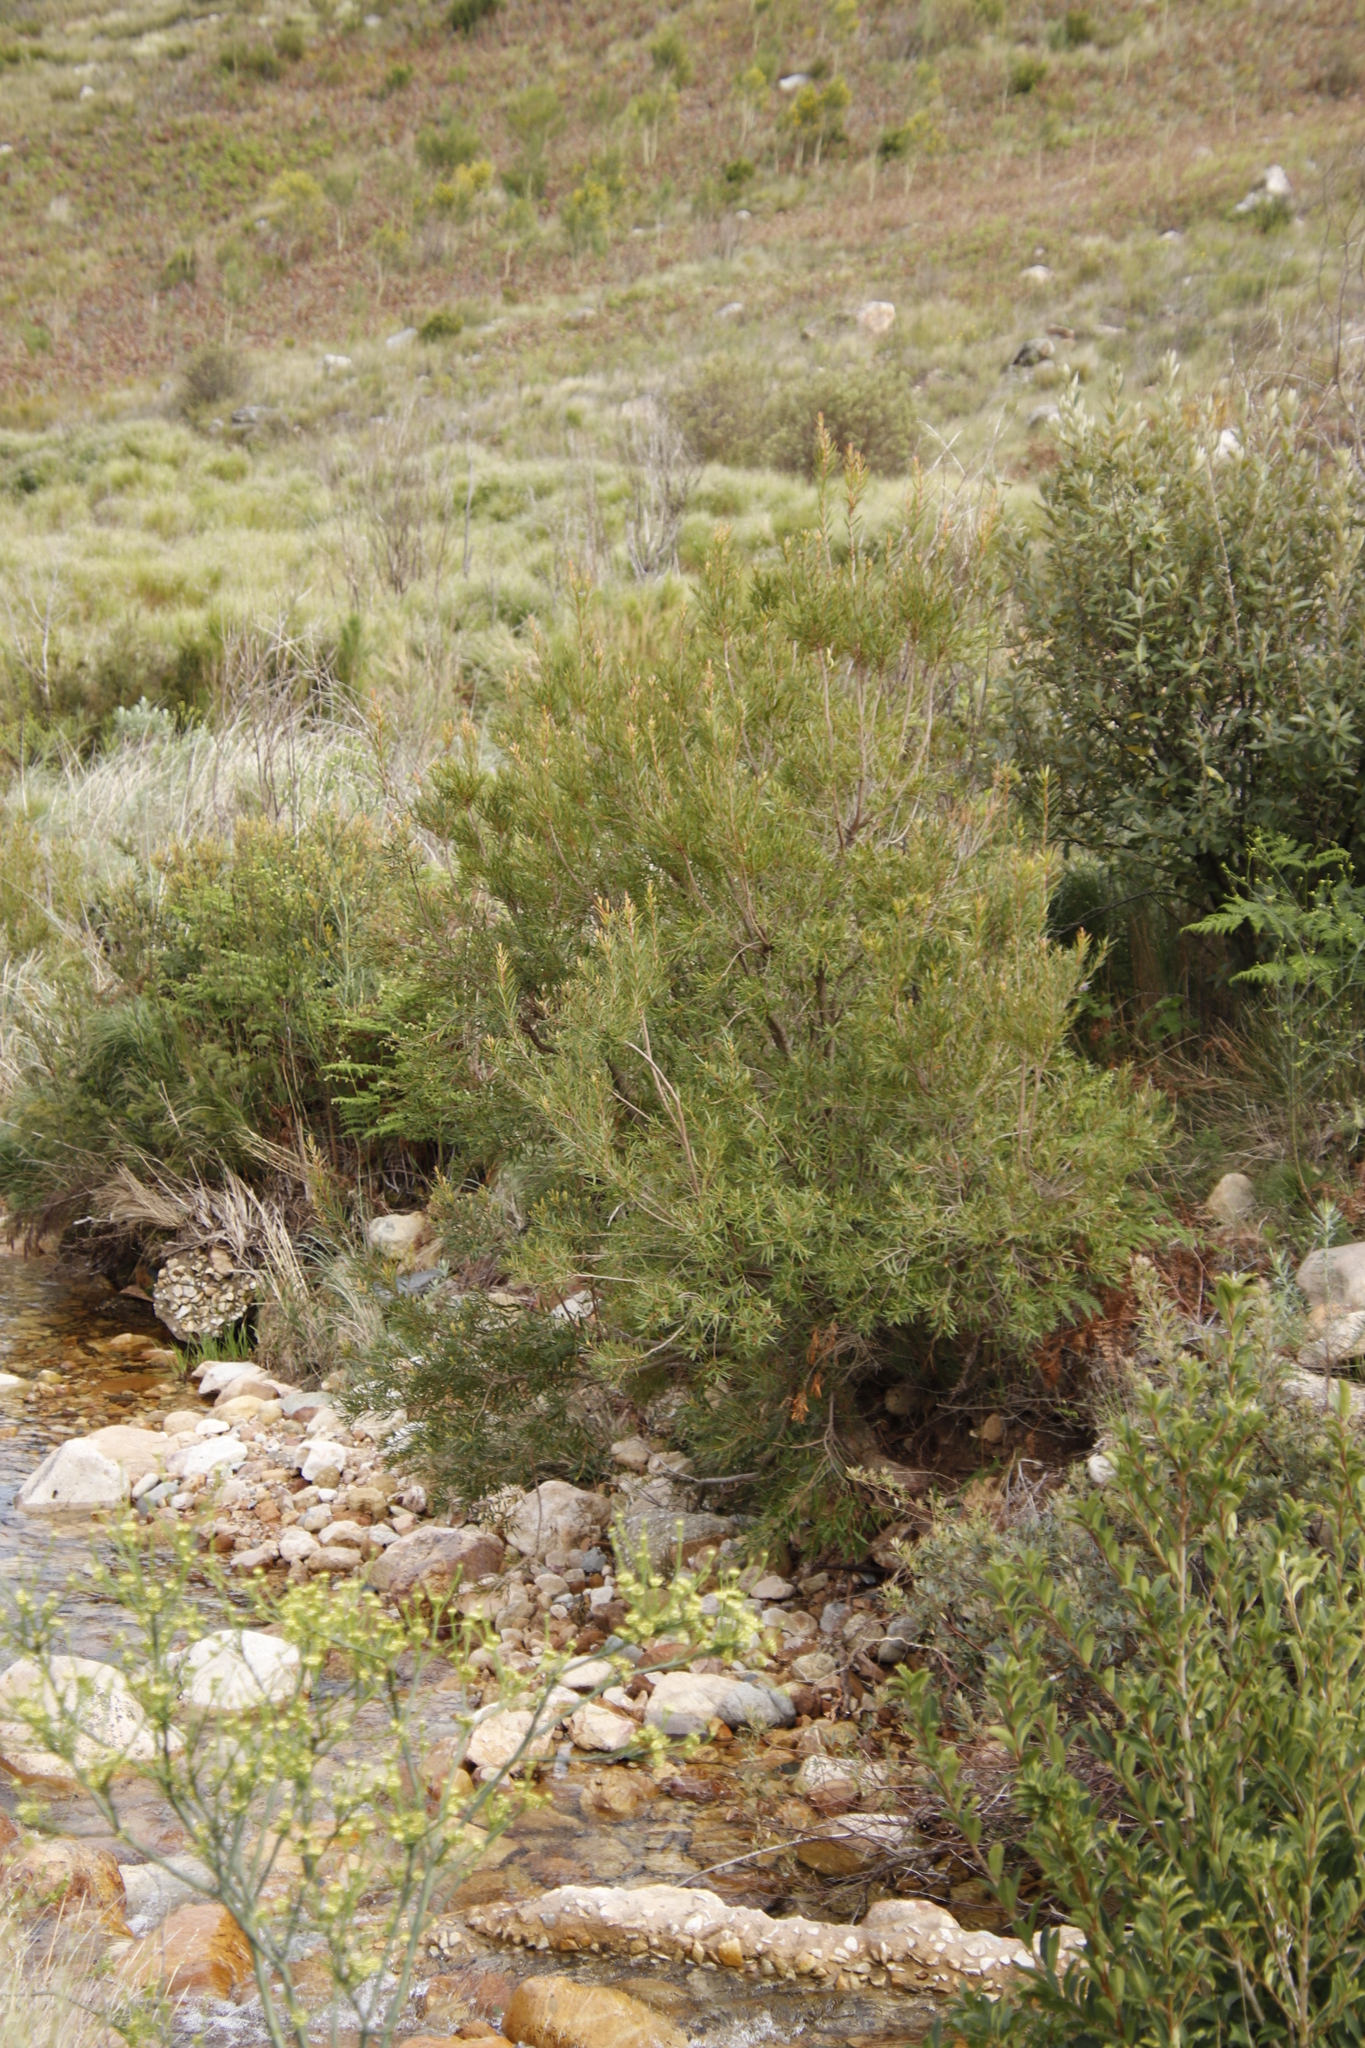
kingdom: Plantae
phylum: Tracheophyta
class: Magnoliopsida
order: Myrtales
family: Myrtaceae
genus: Callistemon
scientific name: Callistemon lanceolatus
